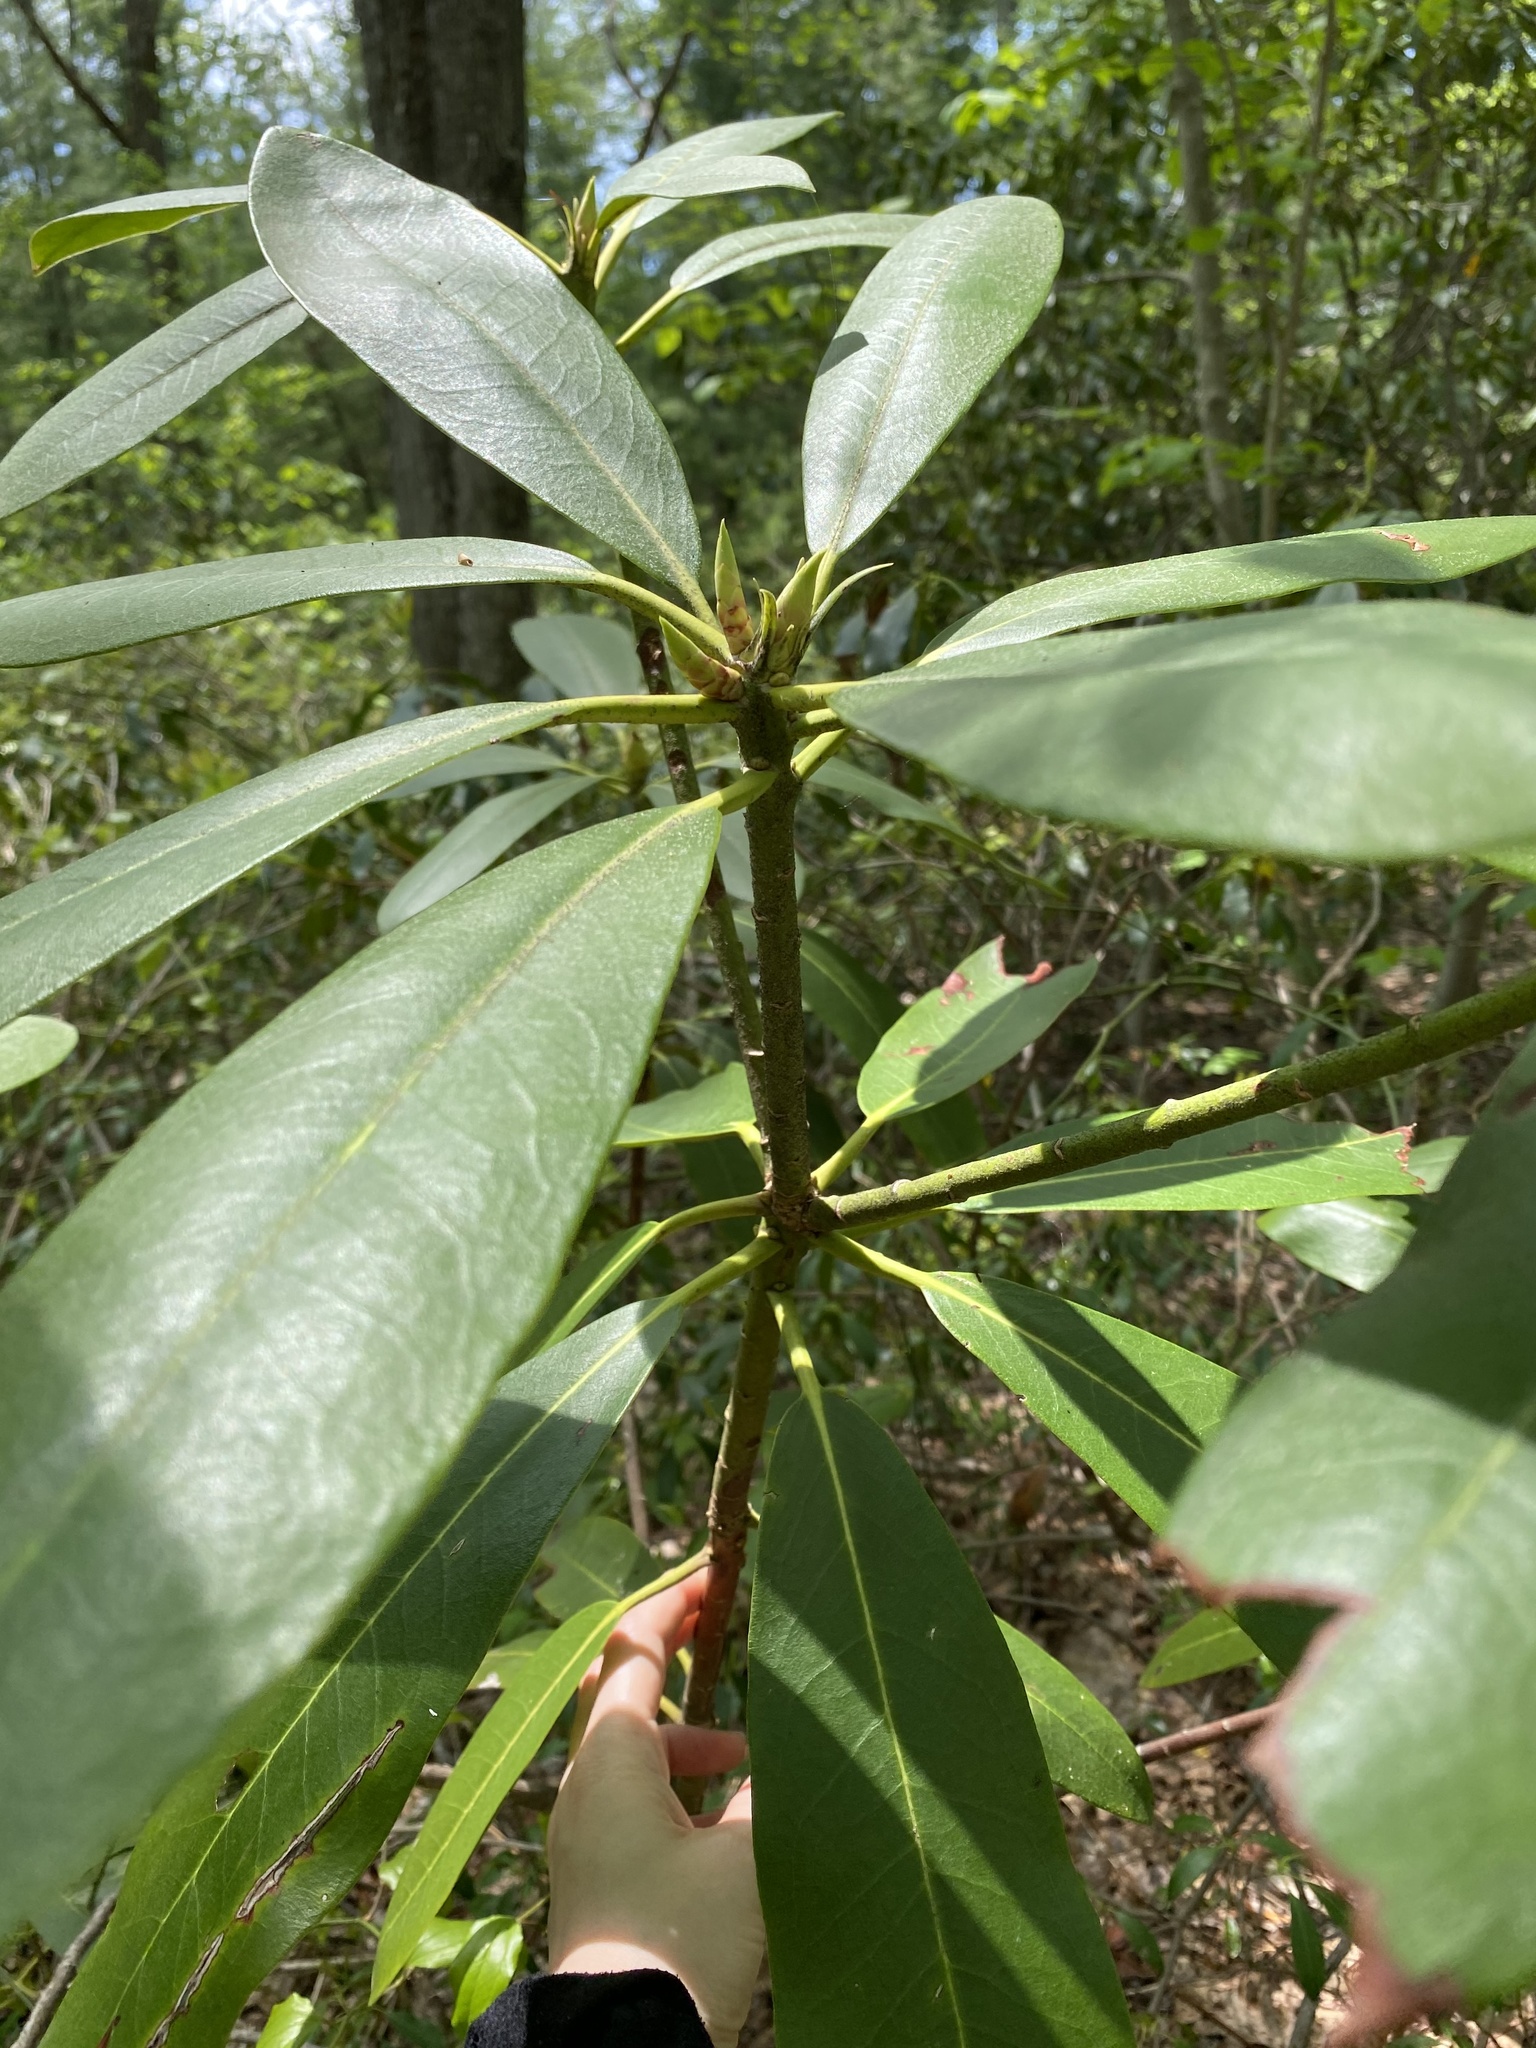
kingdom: Plantae
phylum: Tracheophyta
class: Magnoliopsida
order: Ericales
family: Ericaceae
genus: Rhododendron
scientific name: Rhododendron maximum
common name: Great rhododendron
